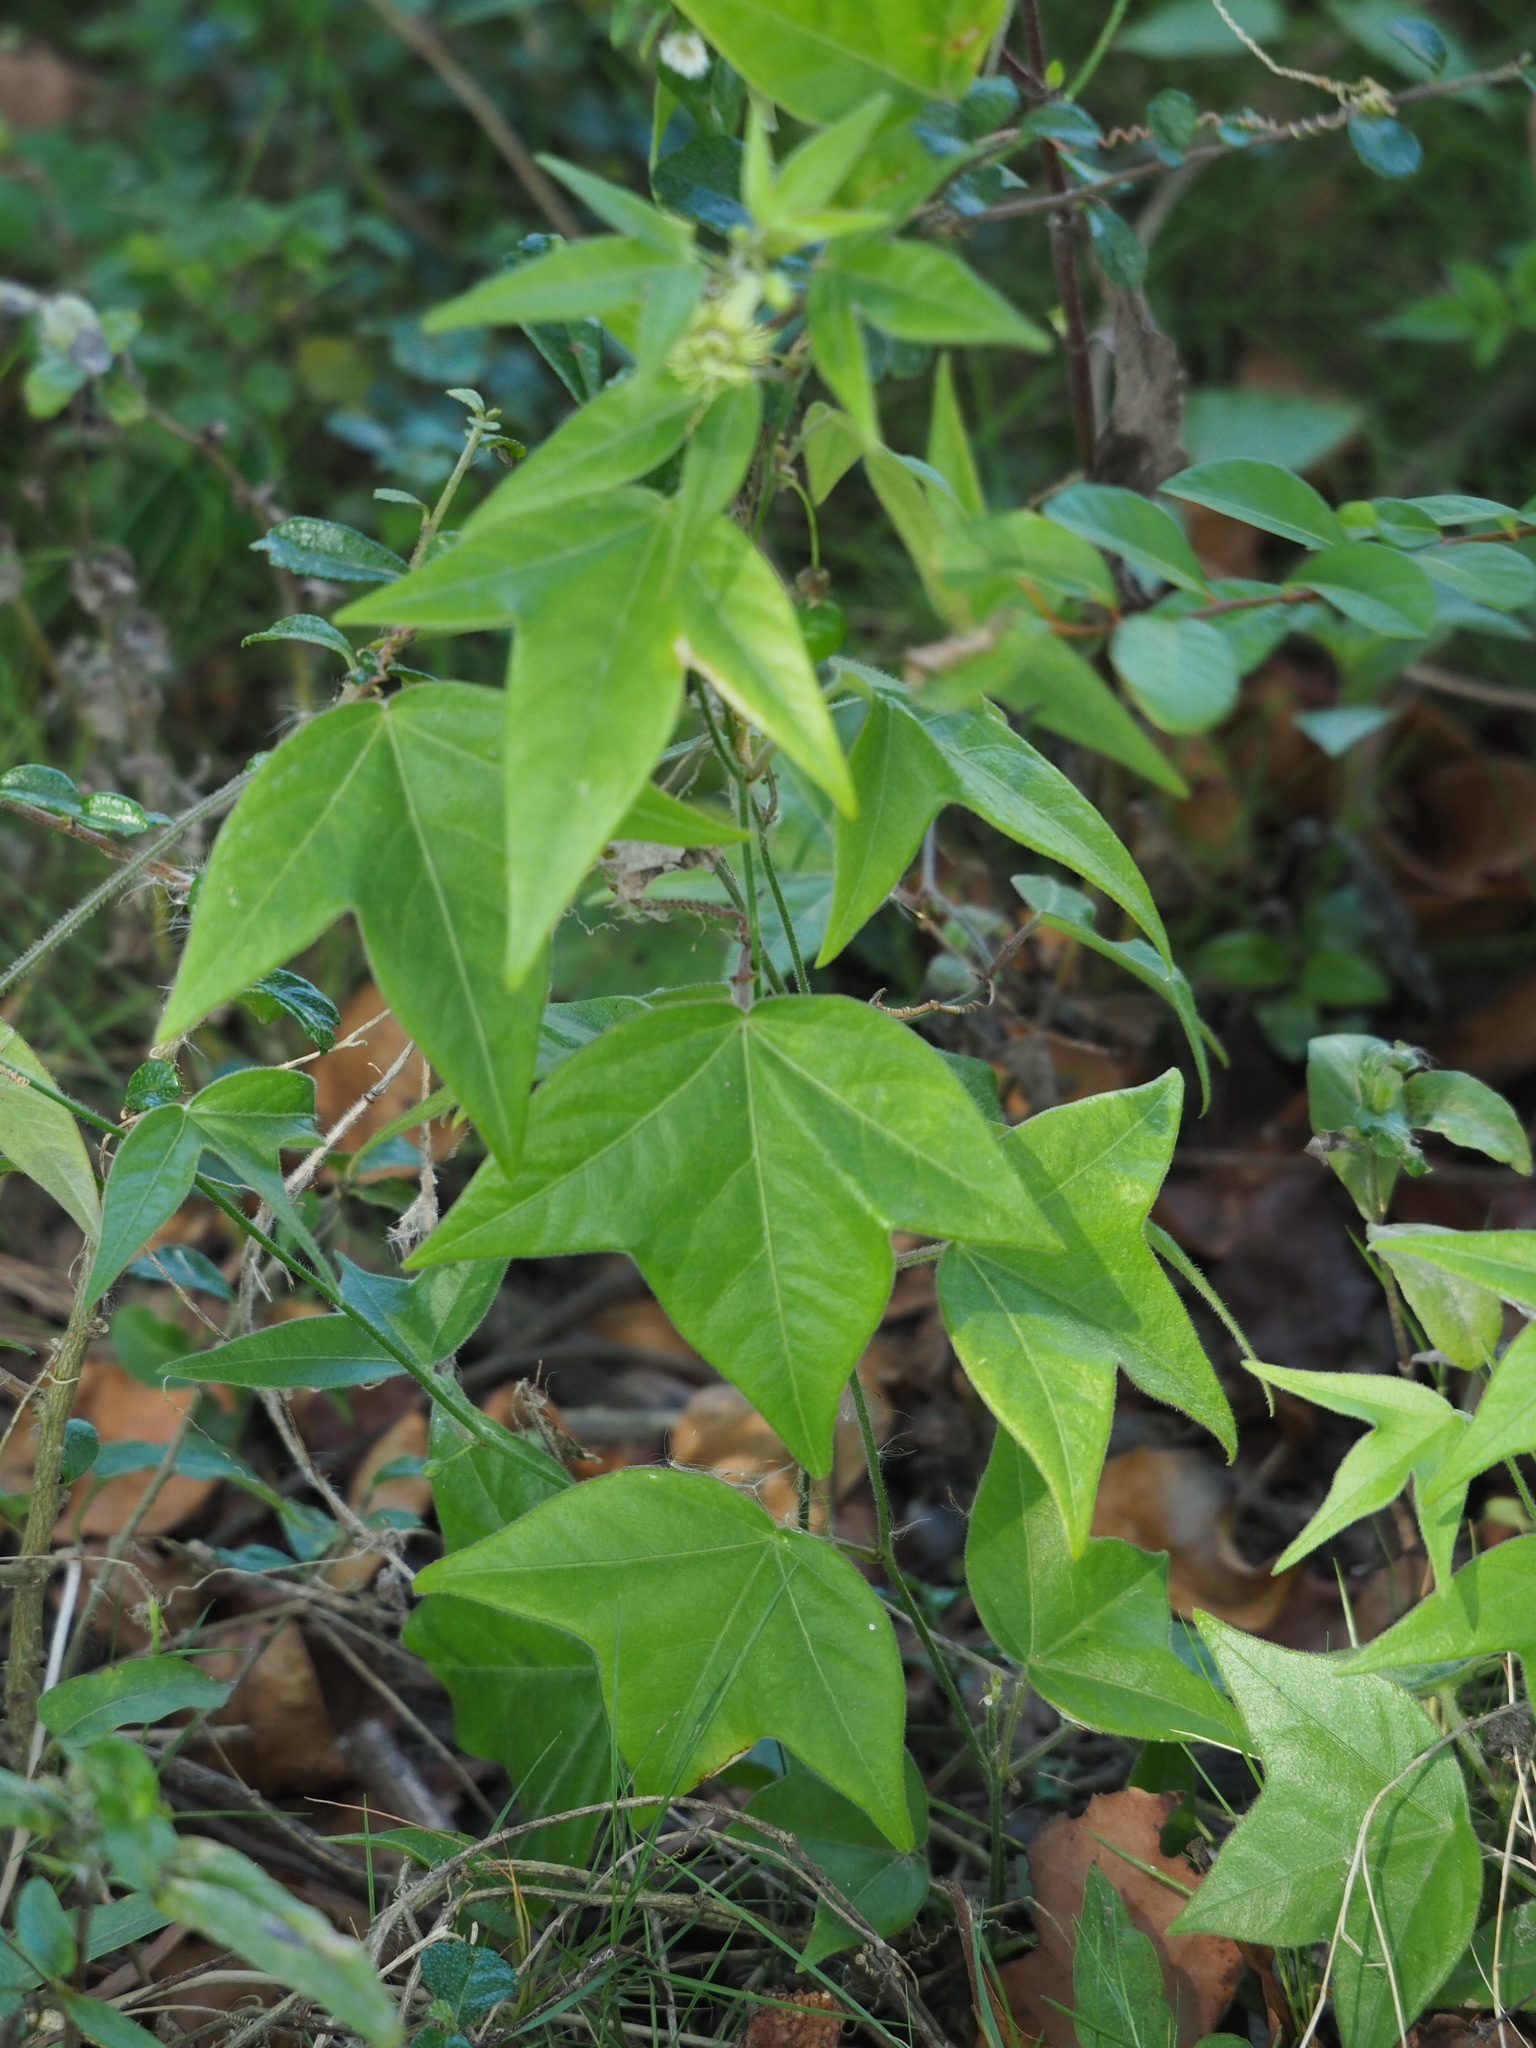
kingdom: Plantae
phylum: Tracheophyta
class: Magnoliopsida
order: Malpighiales
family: Passifloraceae
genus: Passiflora
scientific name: Passiflora suberosa
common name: Wild passionfruit
